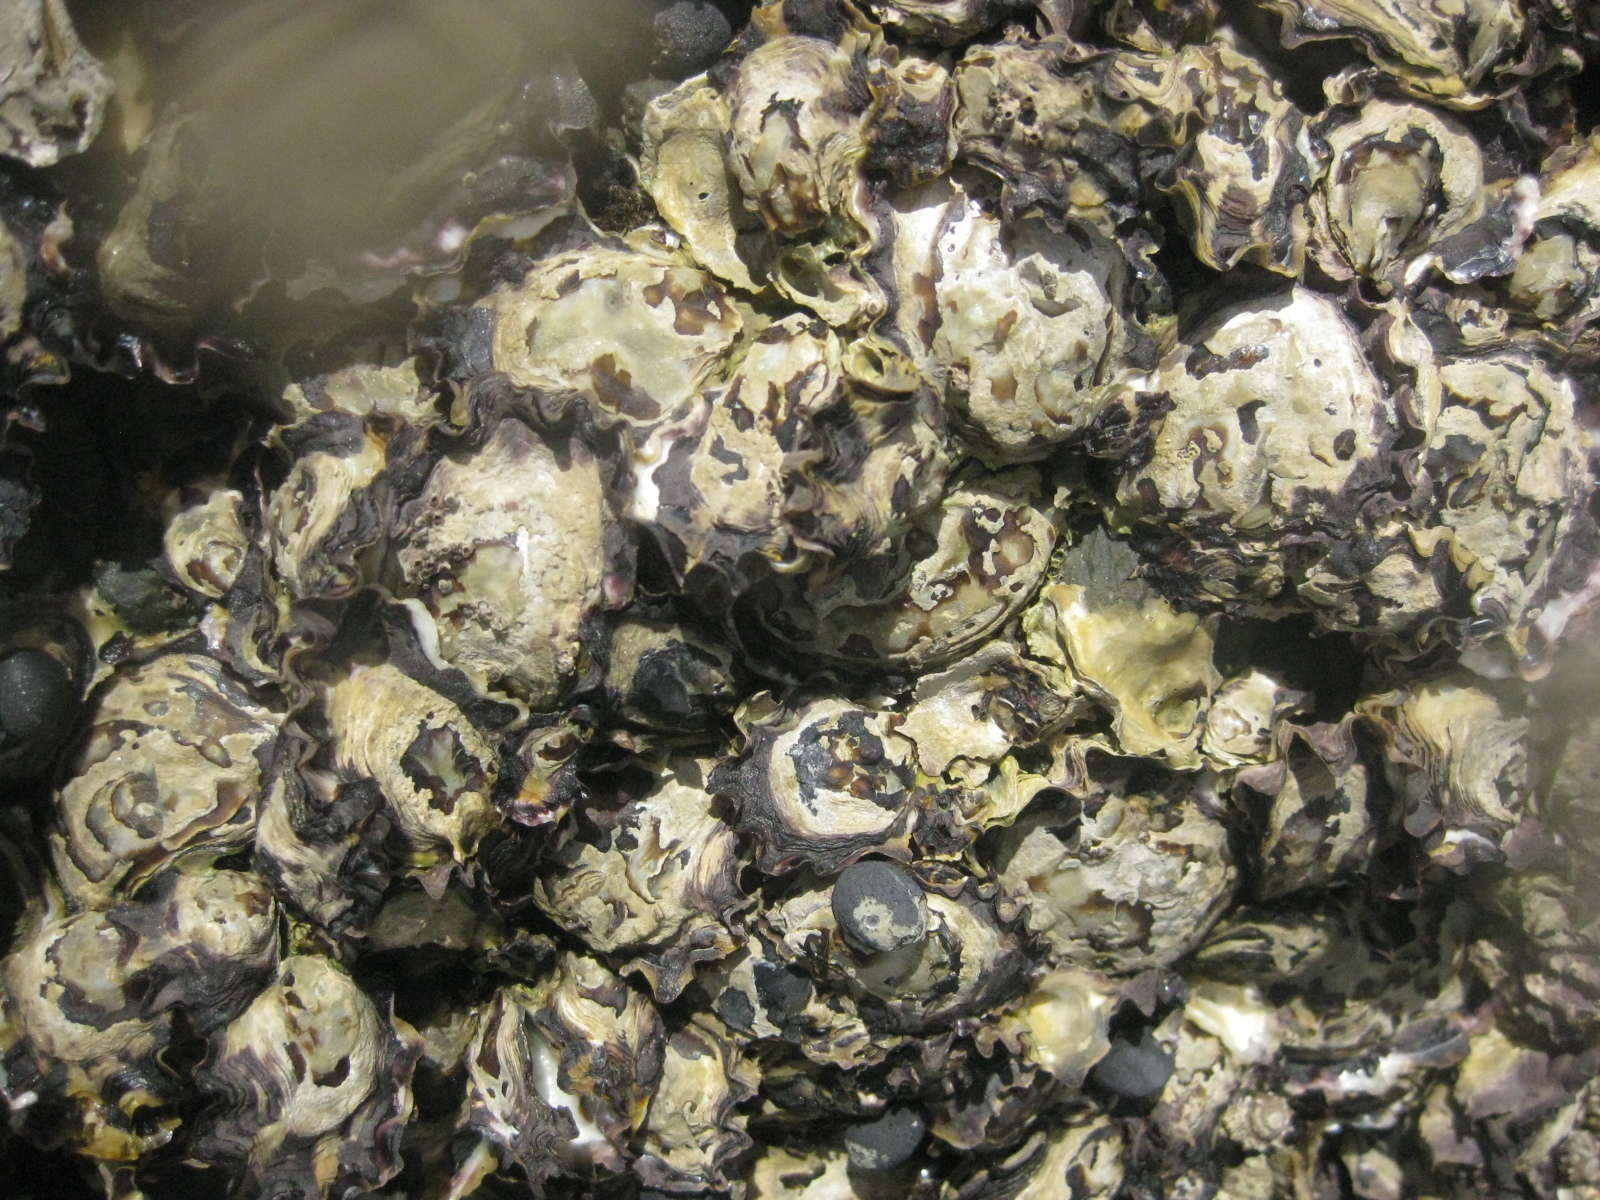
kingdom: Animalia
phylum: Mollusca
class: Bivalvia
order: Ostreida
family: Ostreidae
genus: Saccostrea
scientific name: Saccostrea glomerata
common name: Sydney cupped oyster
